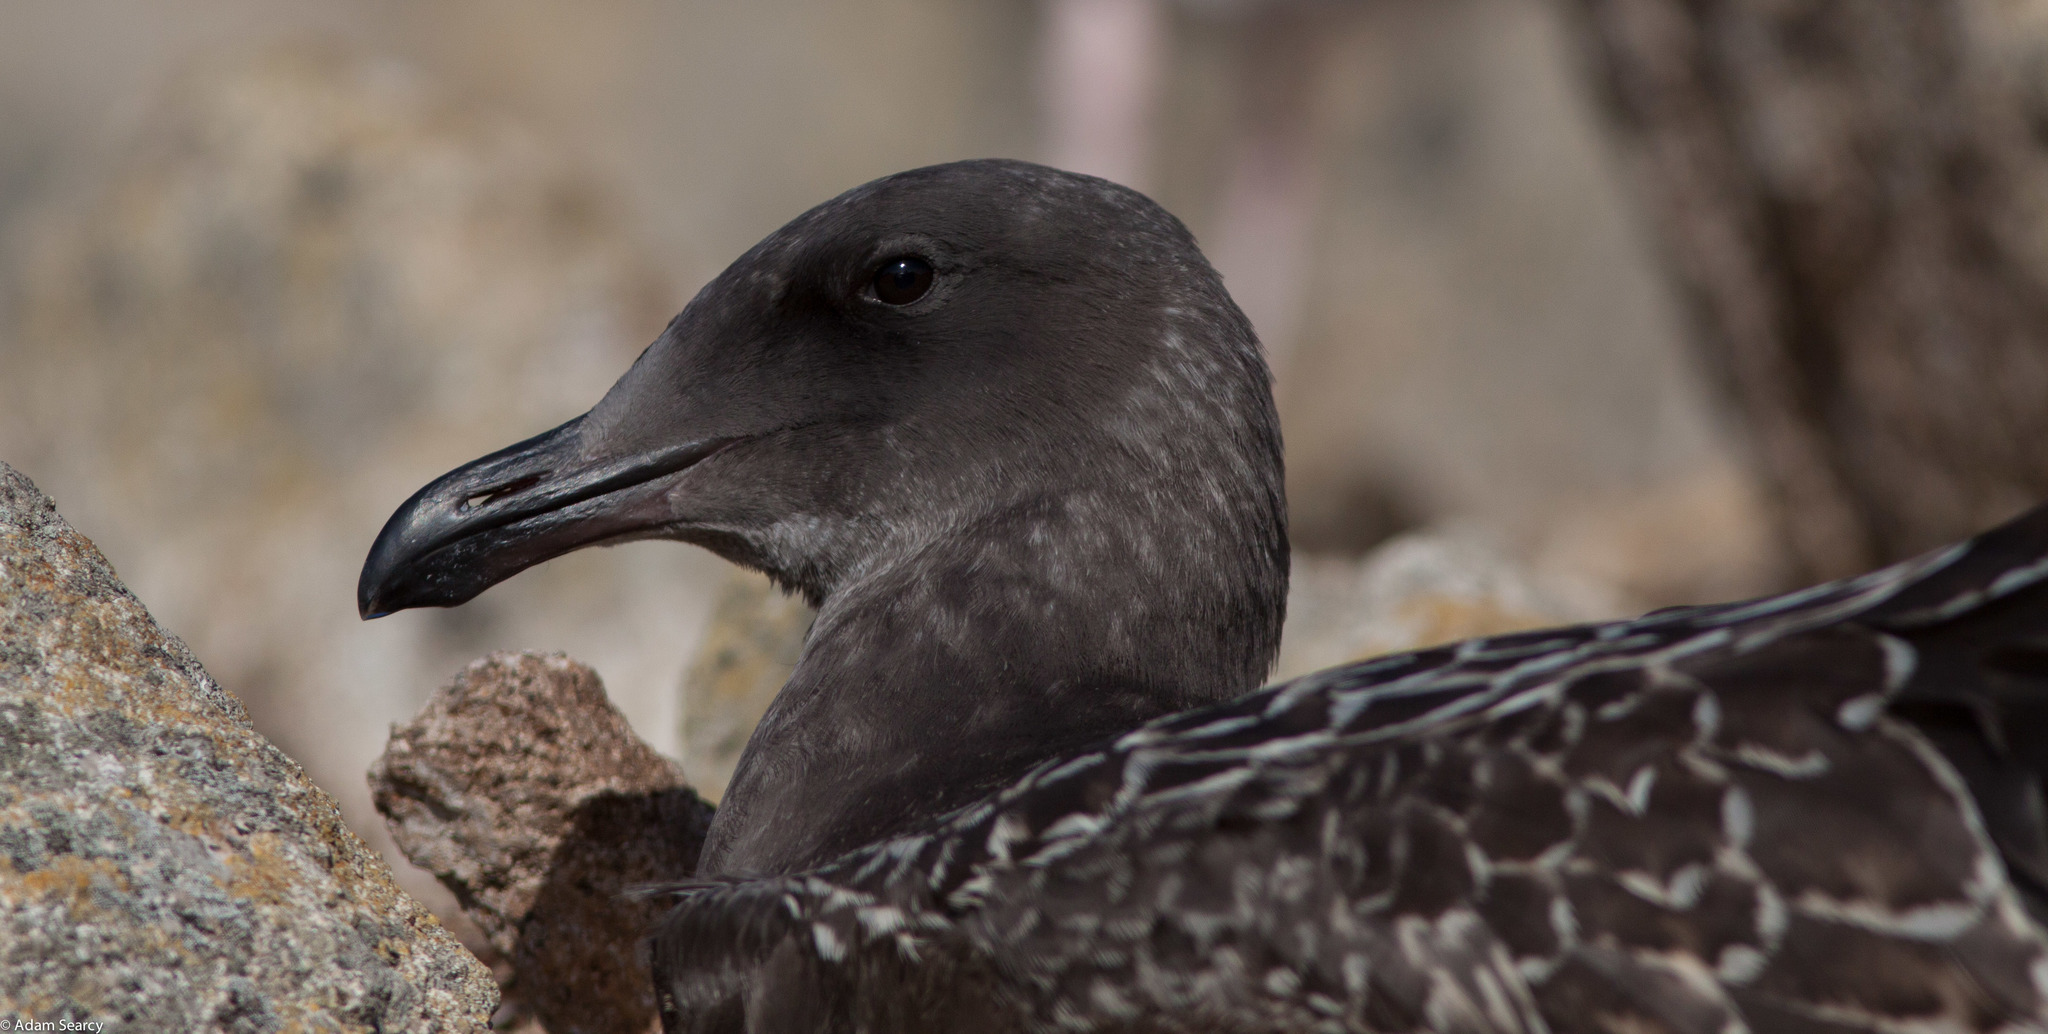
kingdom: Animalia
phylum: Chordata
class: Aves
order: Charadriiformes
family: Laridae
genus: Larus
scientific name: Larus occidentalis
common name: Western gull
